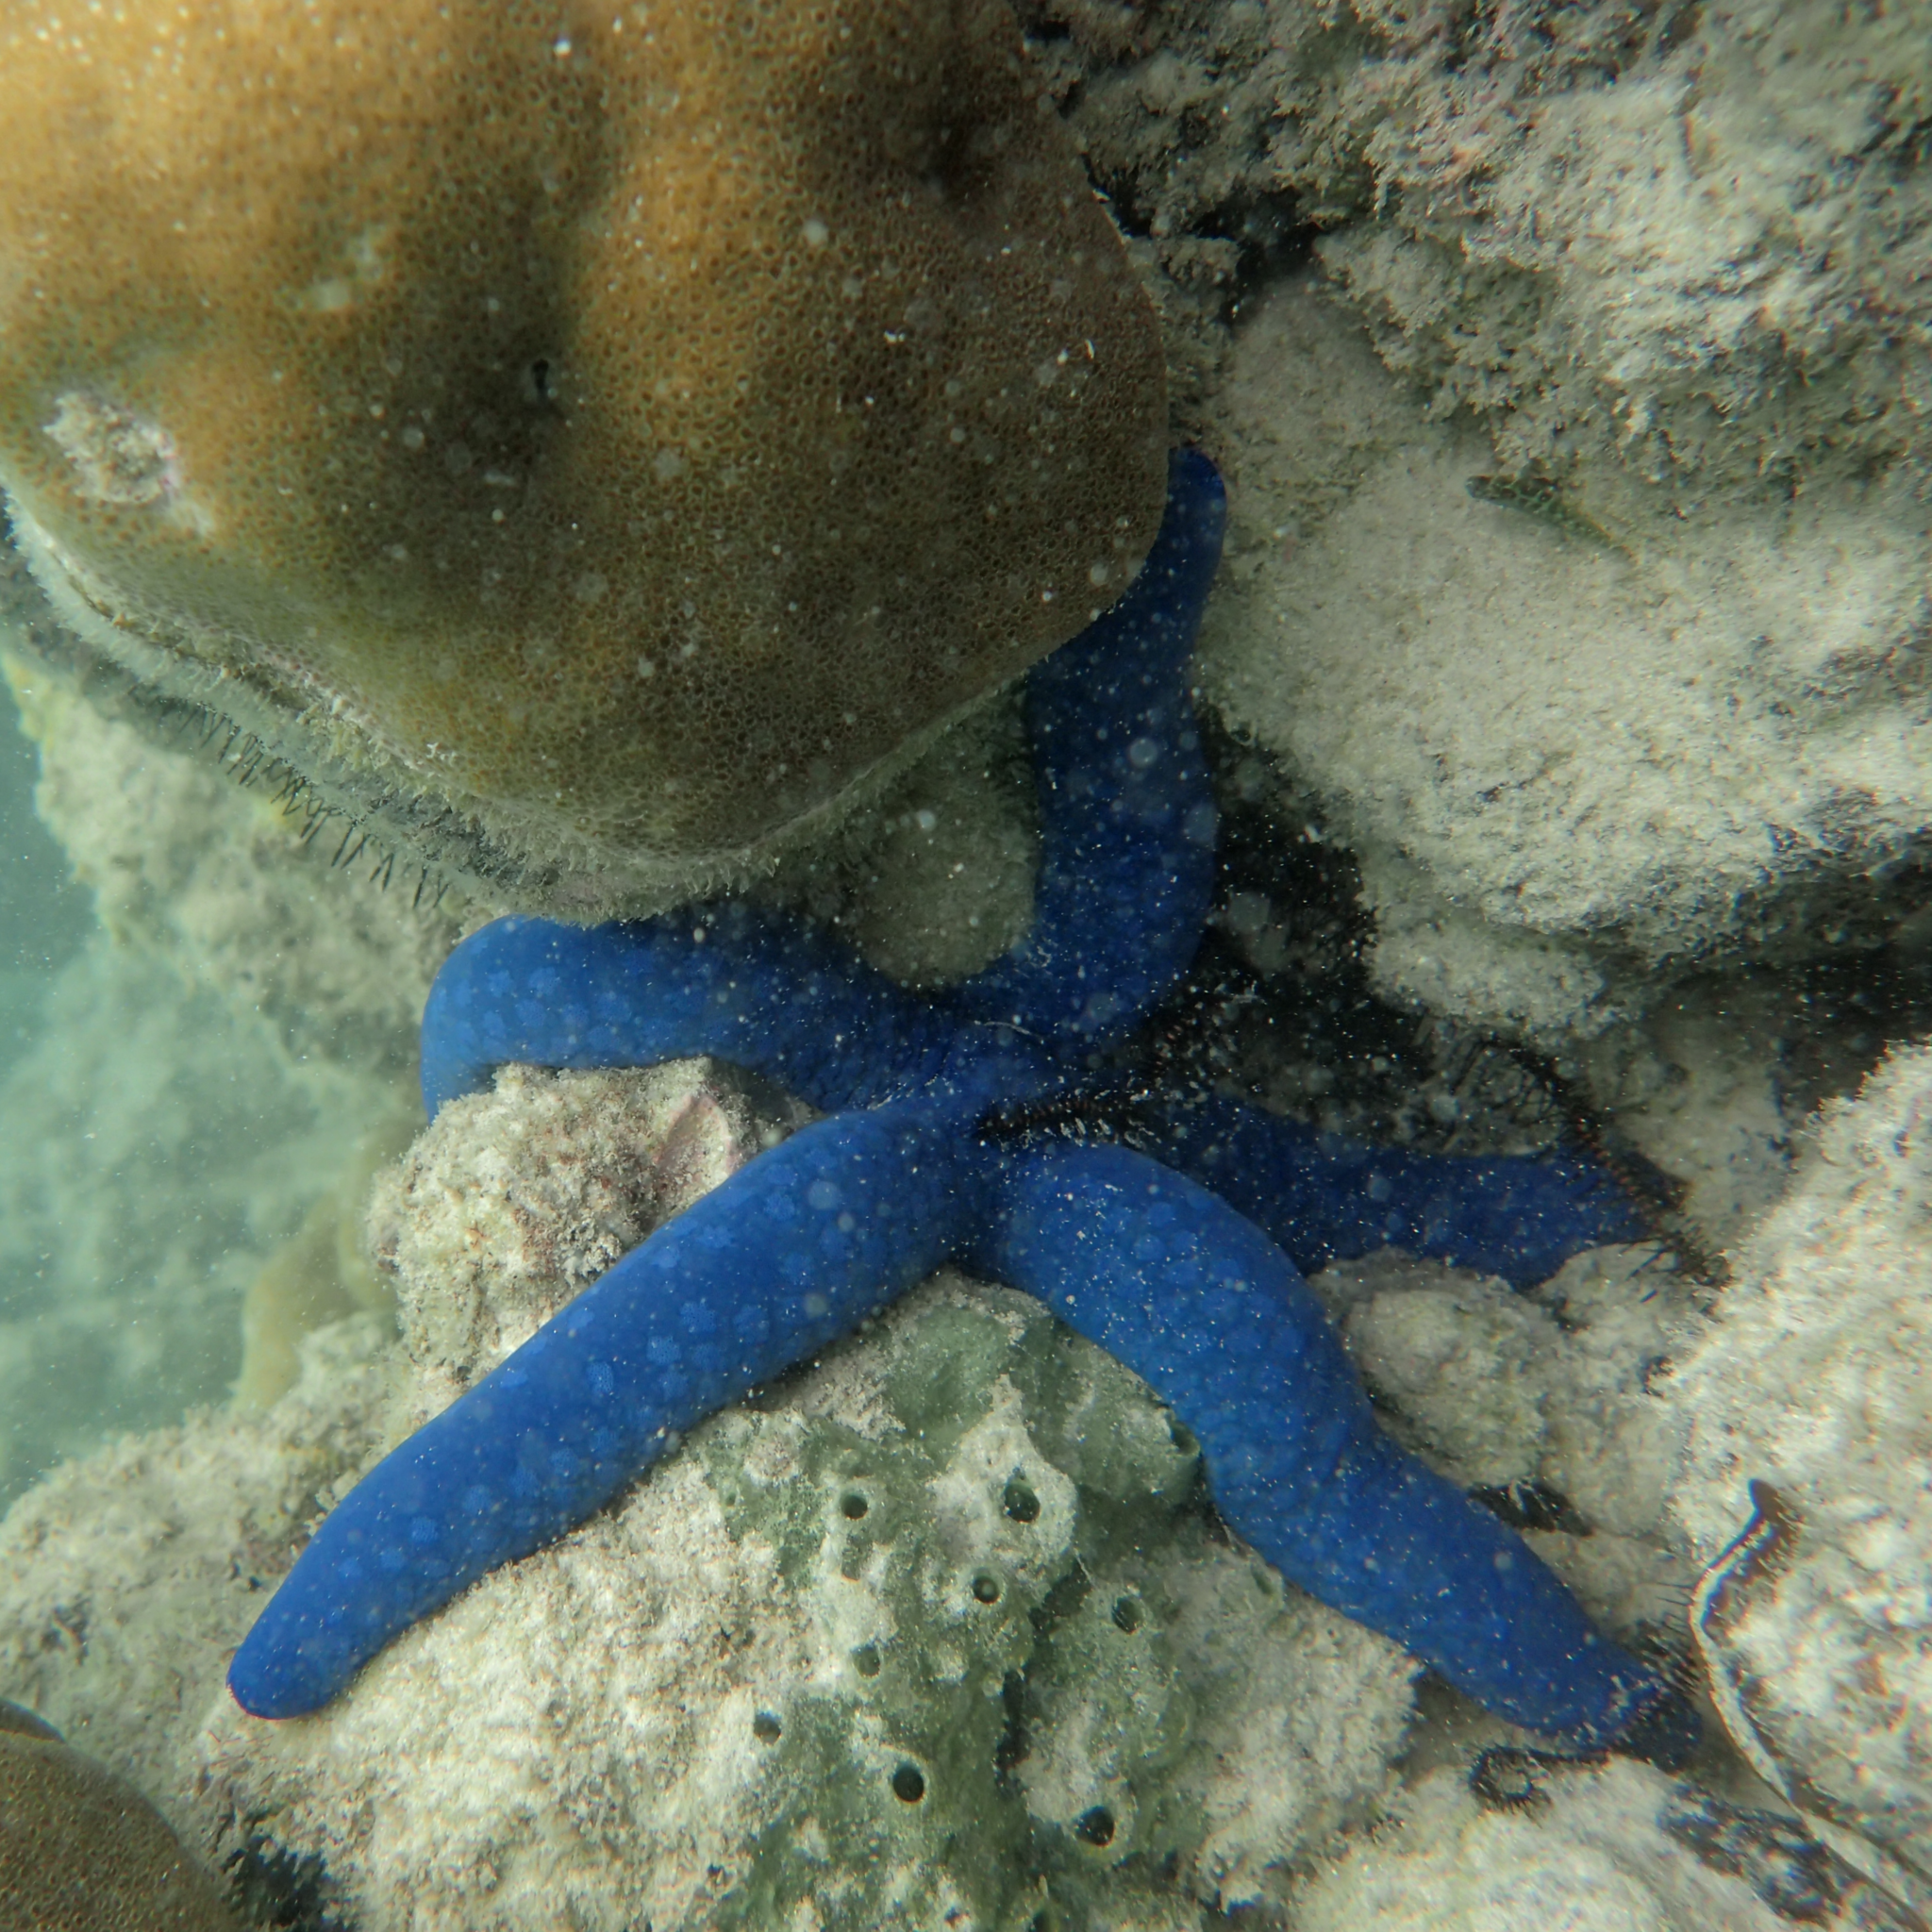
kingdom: Animalia
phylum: Echinodermata
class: Asteroidea
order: Valvatida
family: Ophidiasteridae
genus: Linckia
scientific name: Linckia laevigata
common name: Azure sea star
